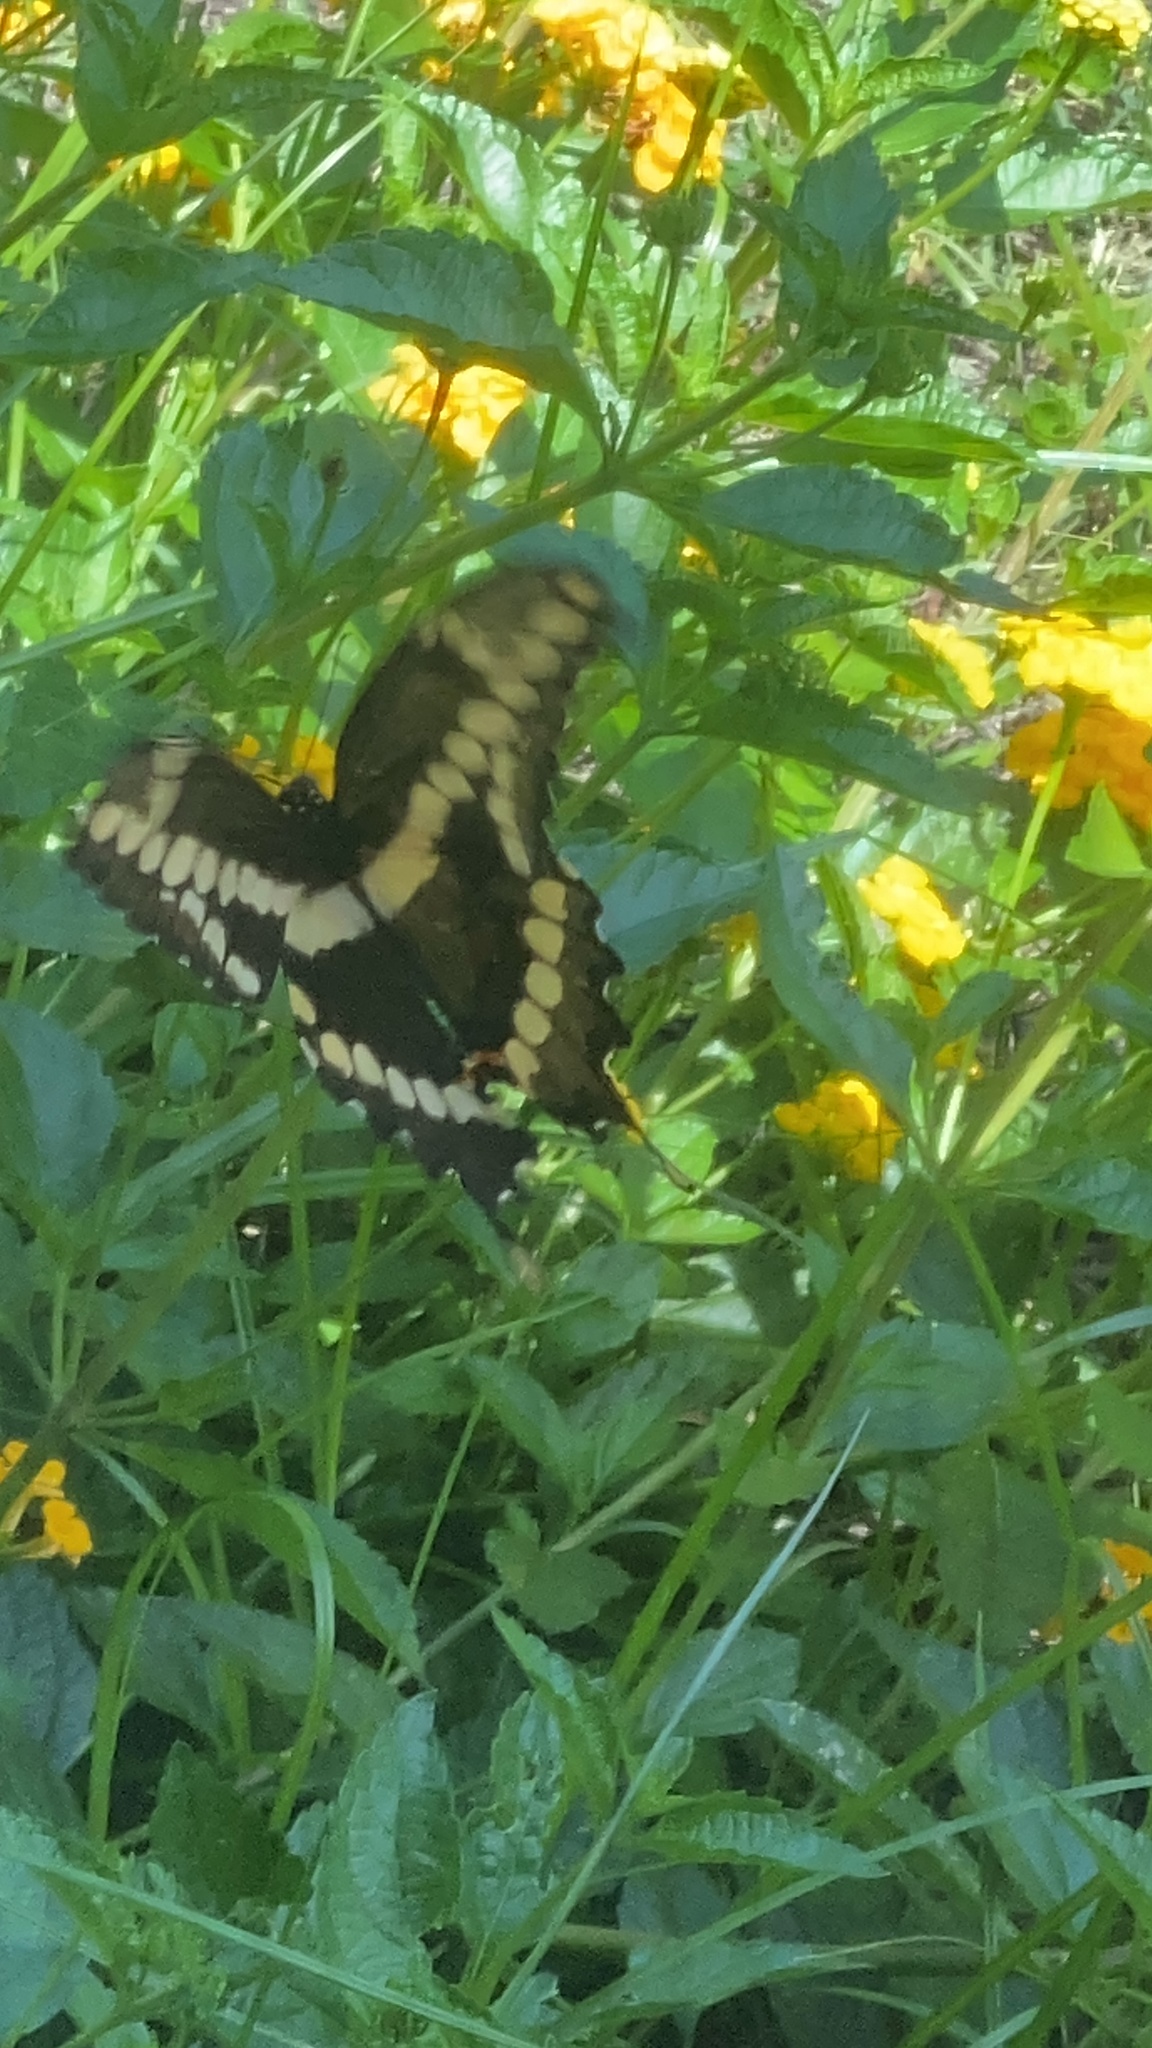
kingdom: Animalia
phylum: Arthropoda
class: Insecta
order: Lepidoptera
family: Papilionidae
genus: Papilio
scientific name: Papilio cresphontes
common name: Giant swallowtail
